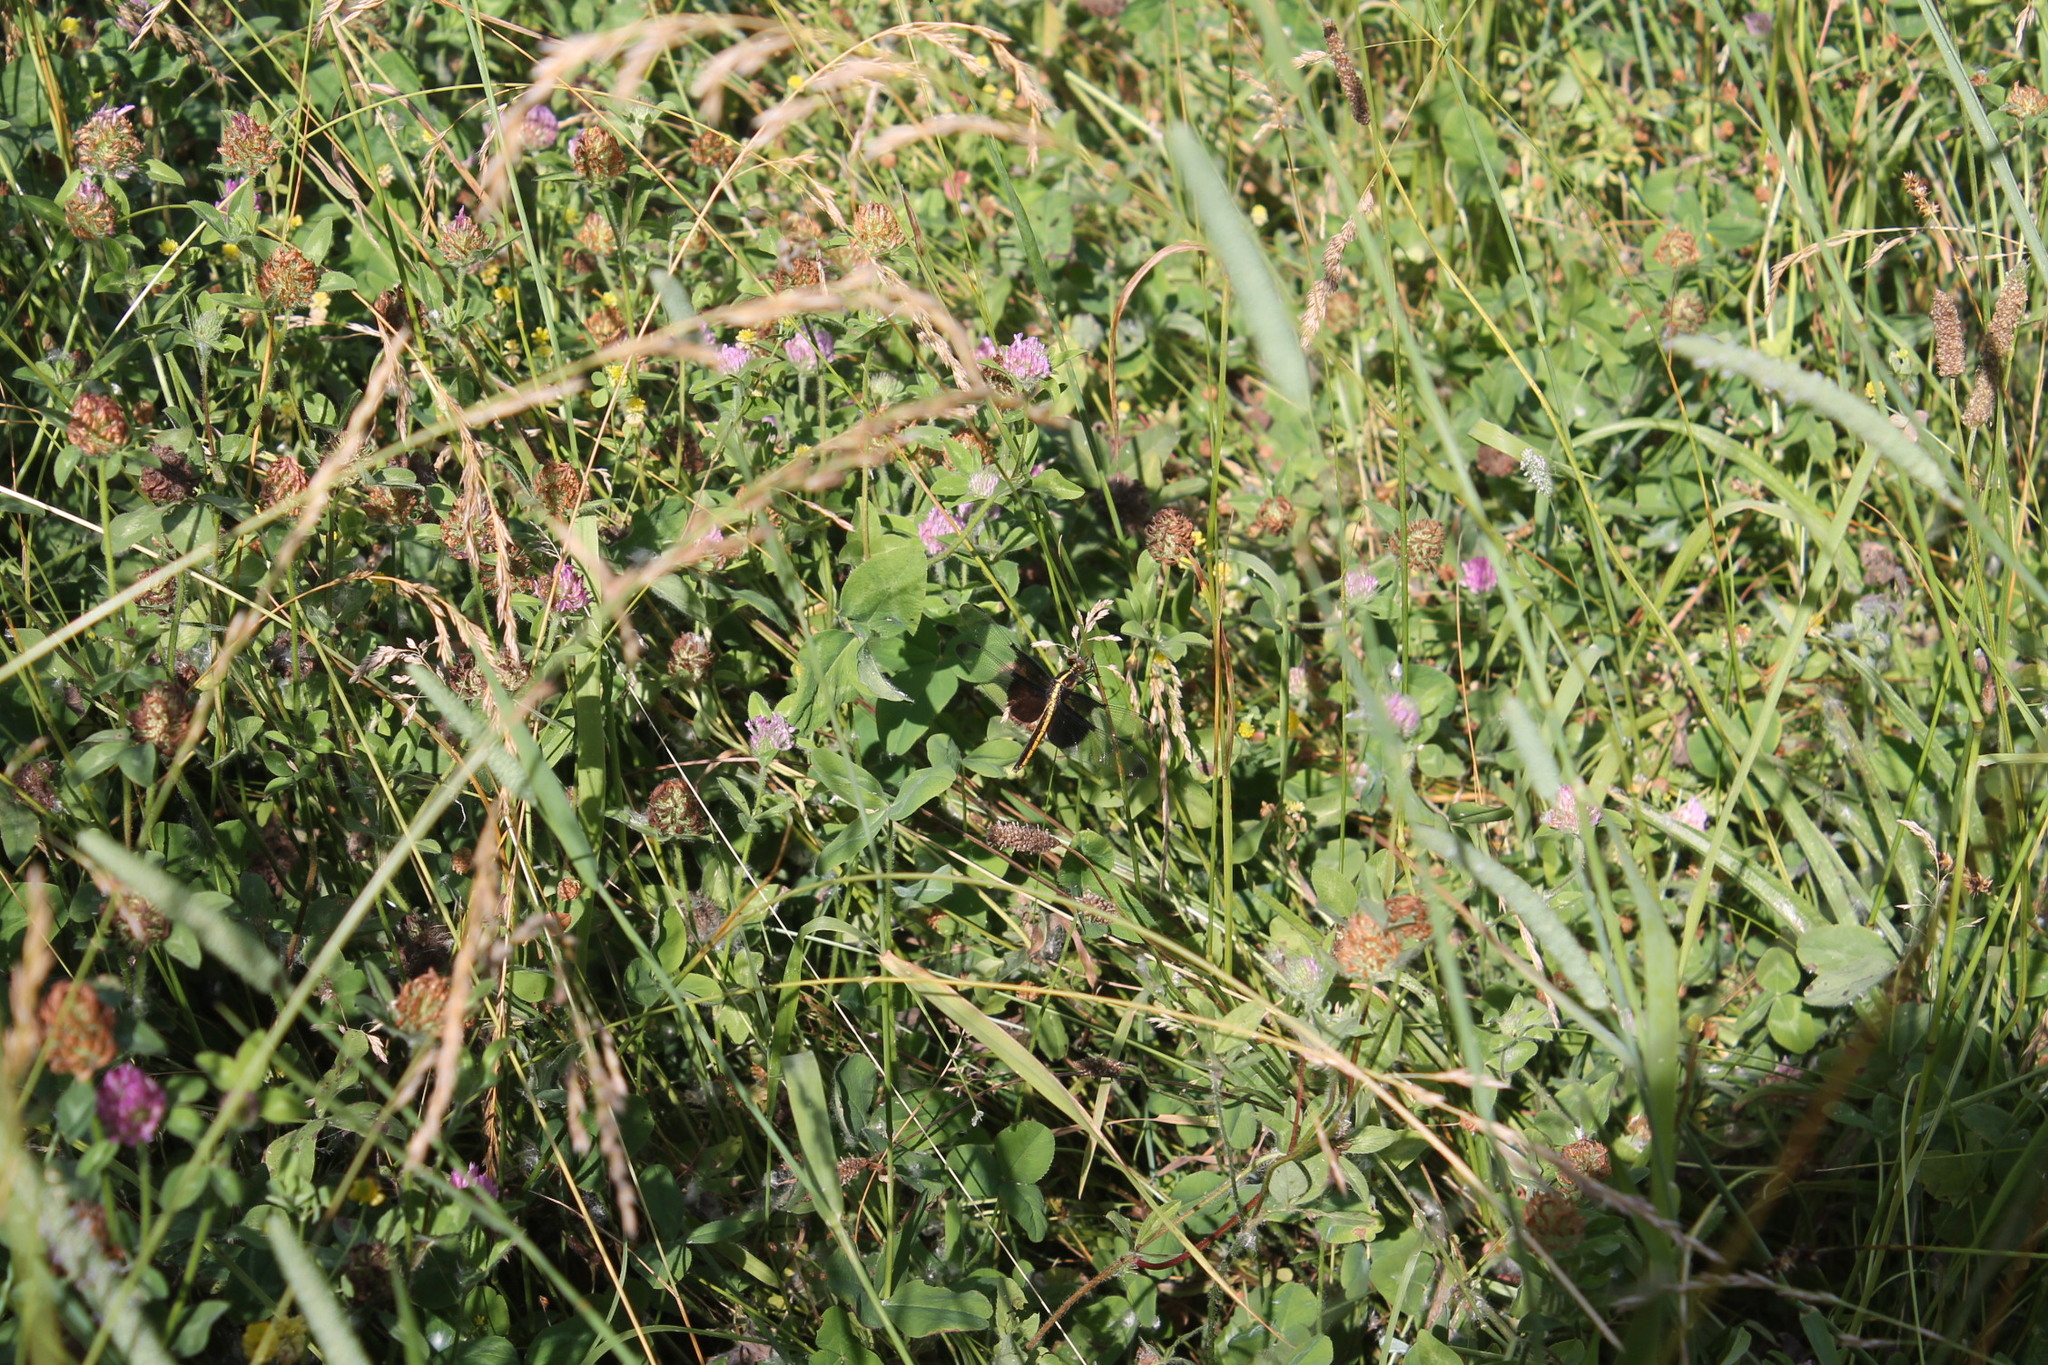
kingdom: Animalia
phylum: Arthropoda
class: Insecta
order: Odonata
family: Libellulidae
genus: Libellula
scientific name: Libellula luctuosa
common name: Widow skimmer
